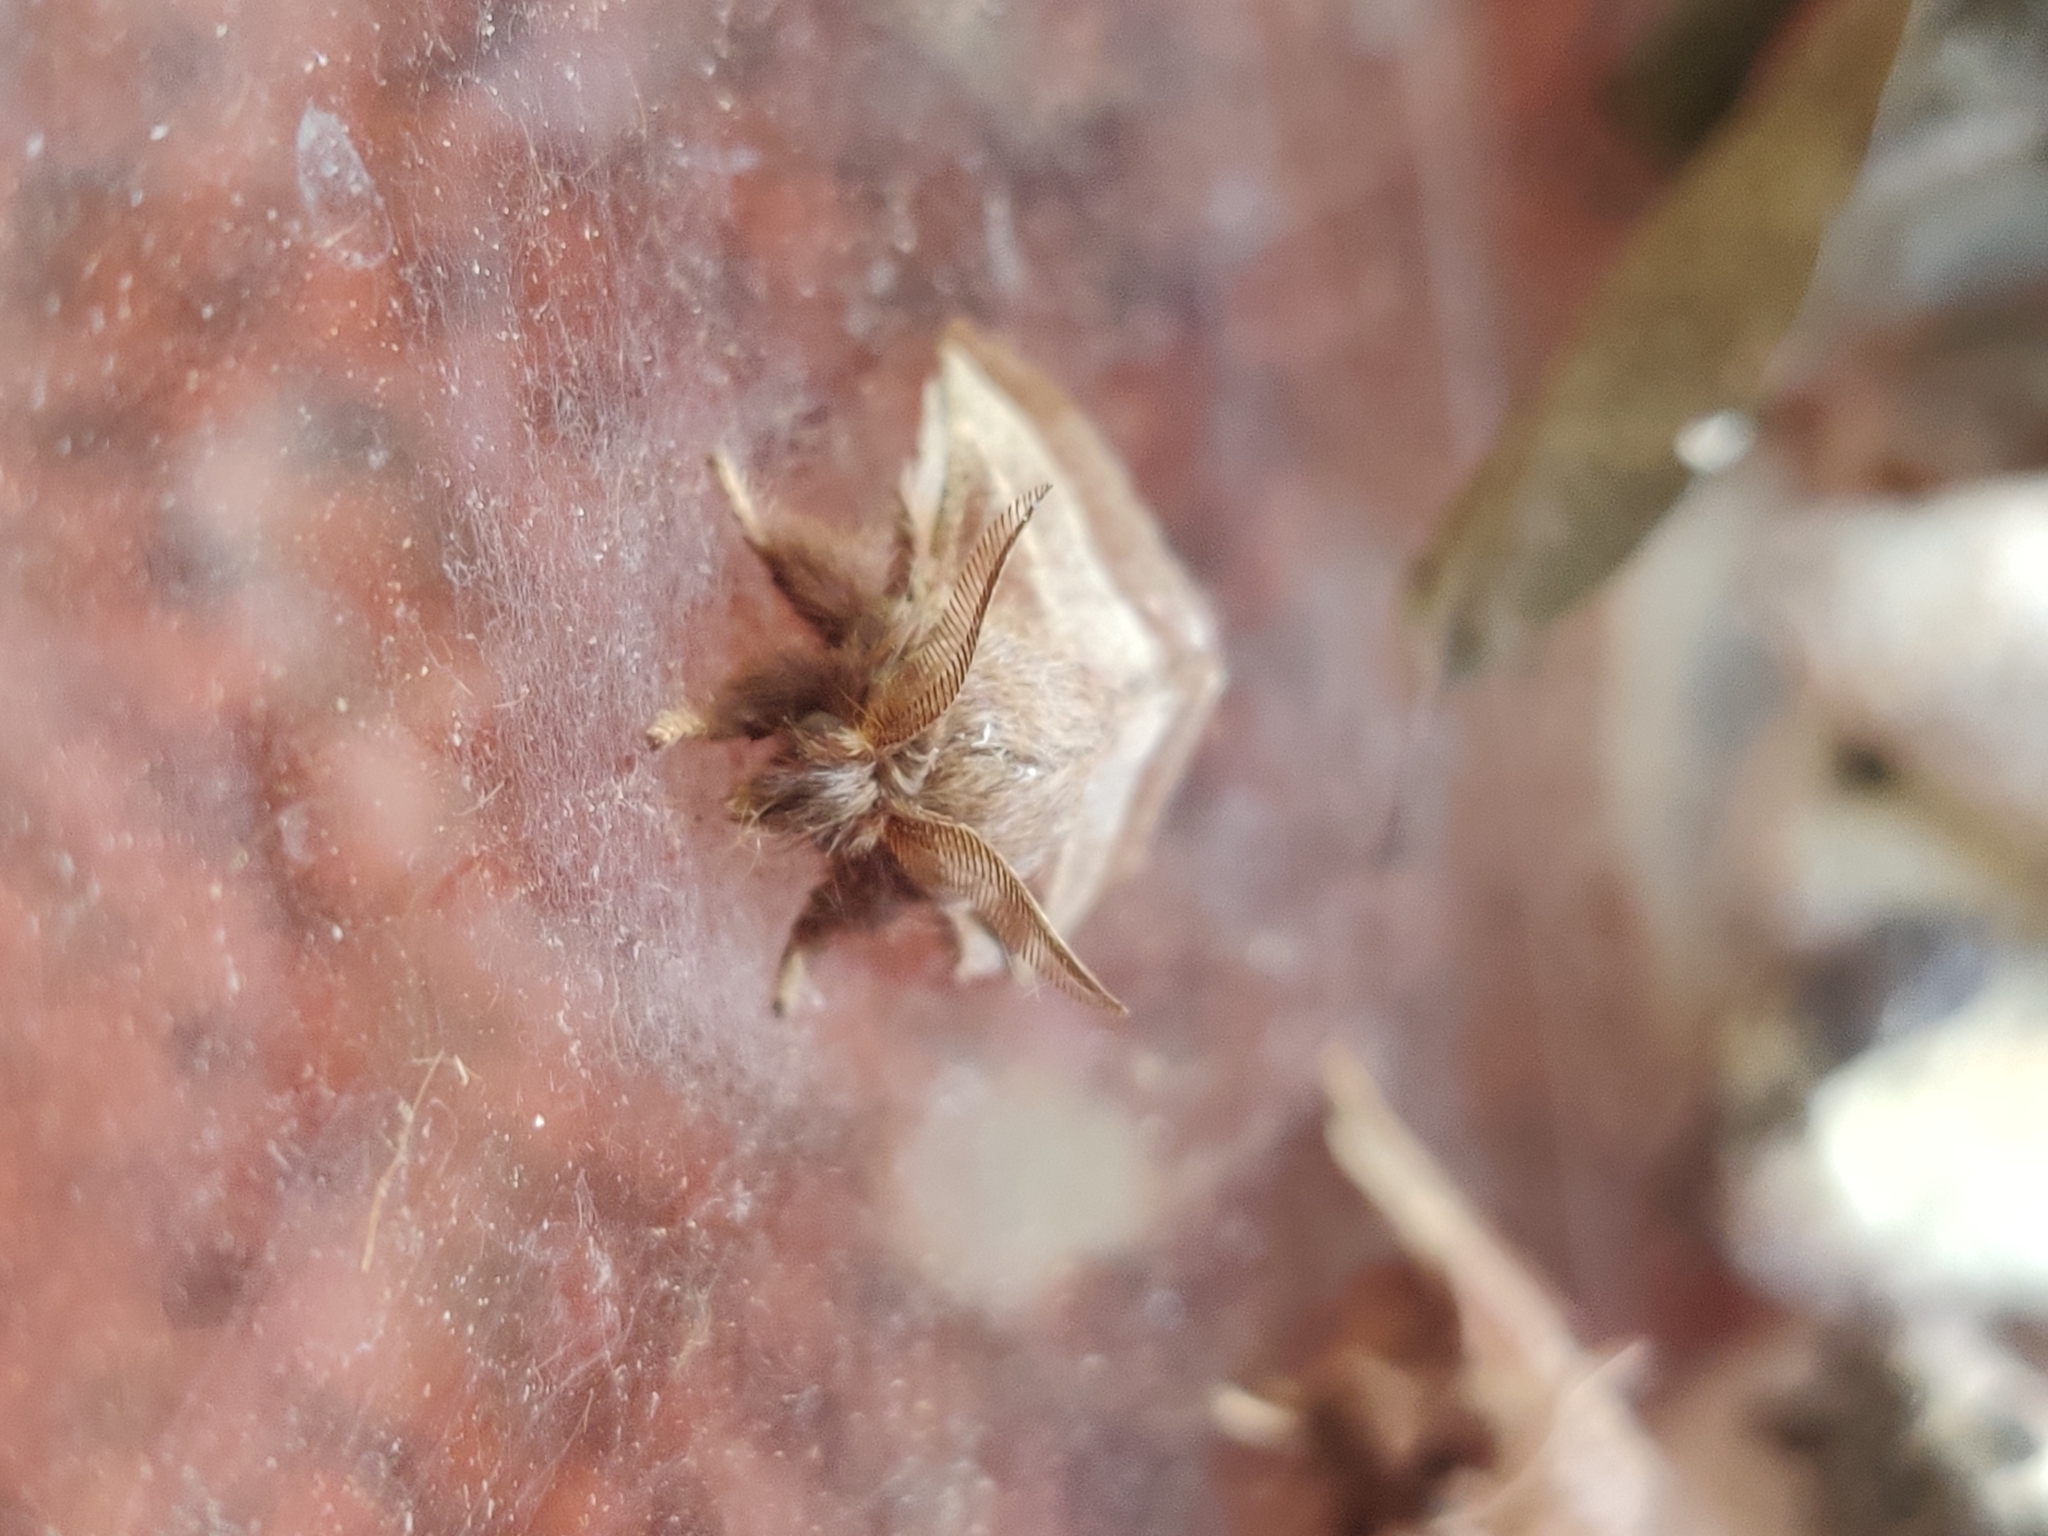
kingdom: Animalia
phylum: Arthropoda
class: Insecta
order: Lepidoptera
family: Lasiocampidae
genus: Malacosoma
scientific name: Malacosoma americana
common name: Eastern tent caterpillar moth
